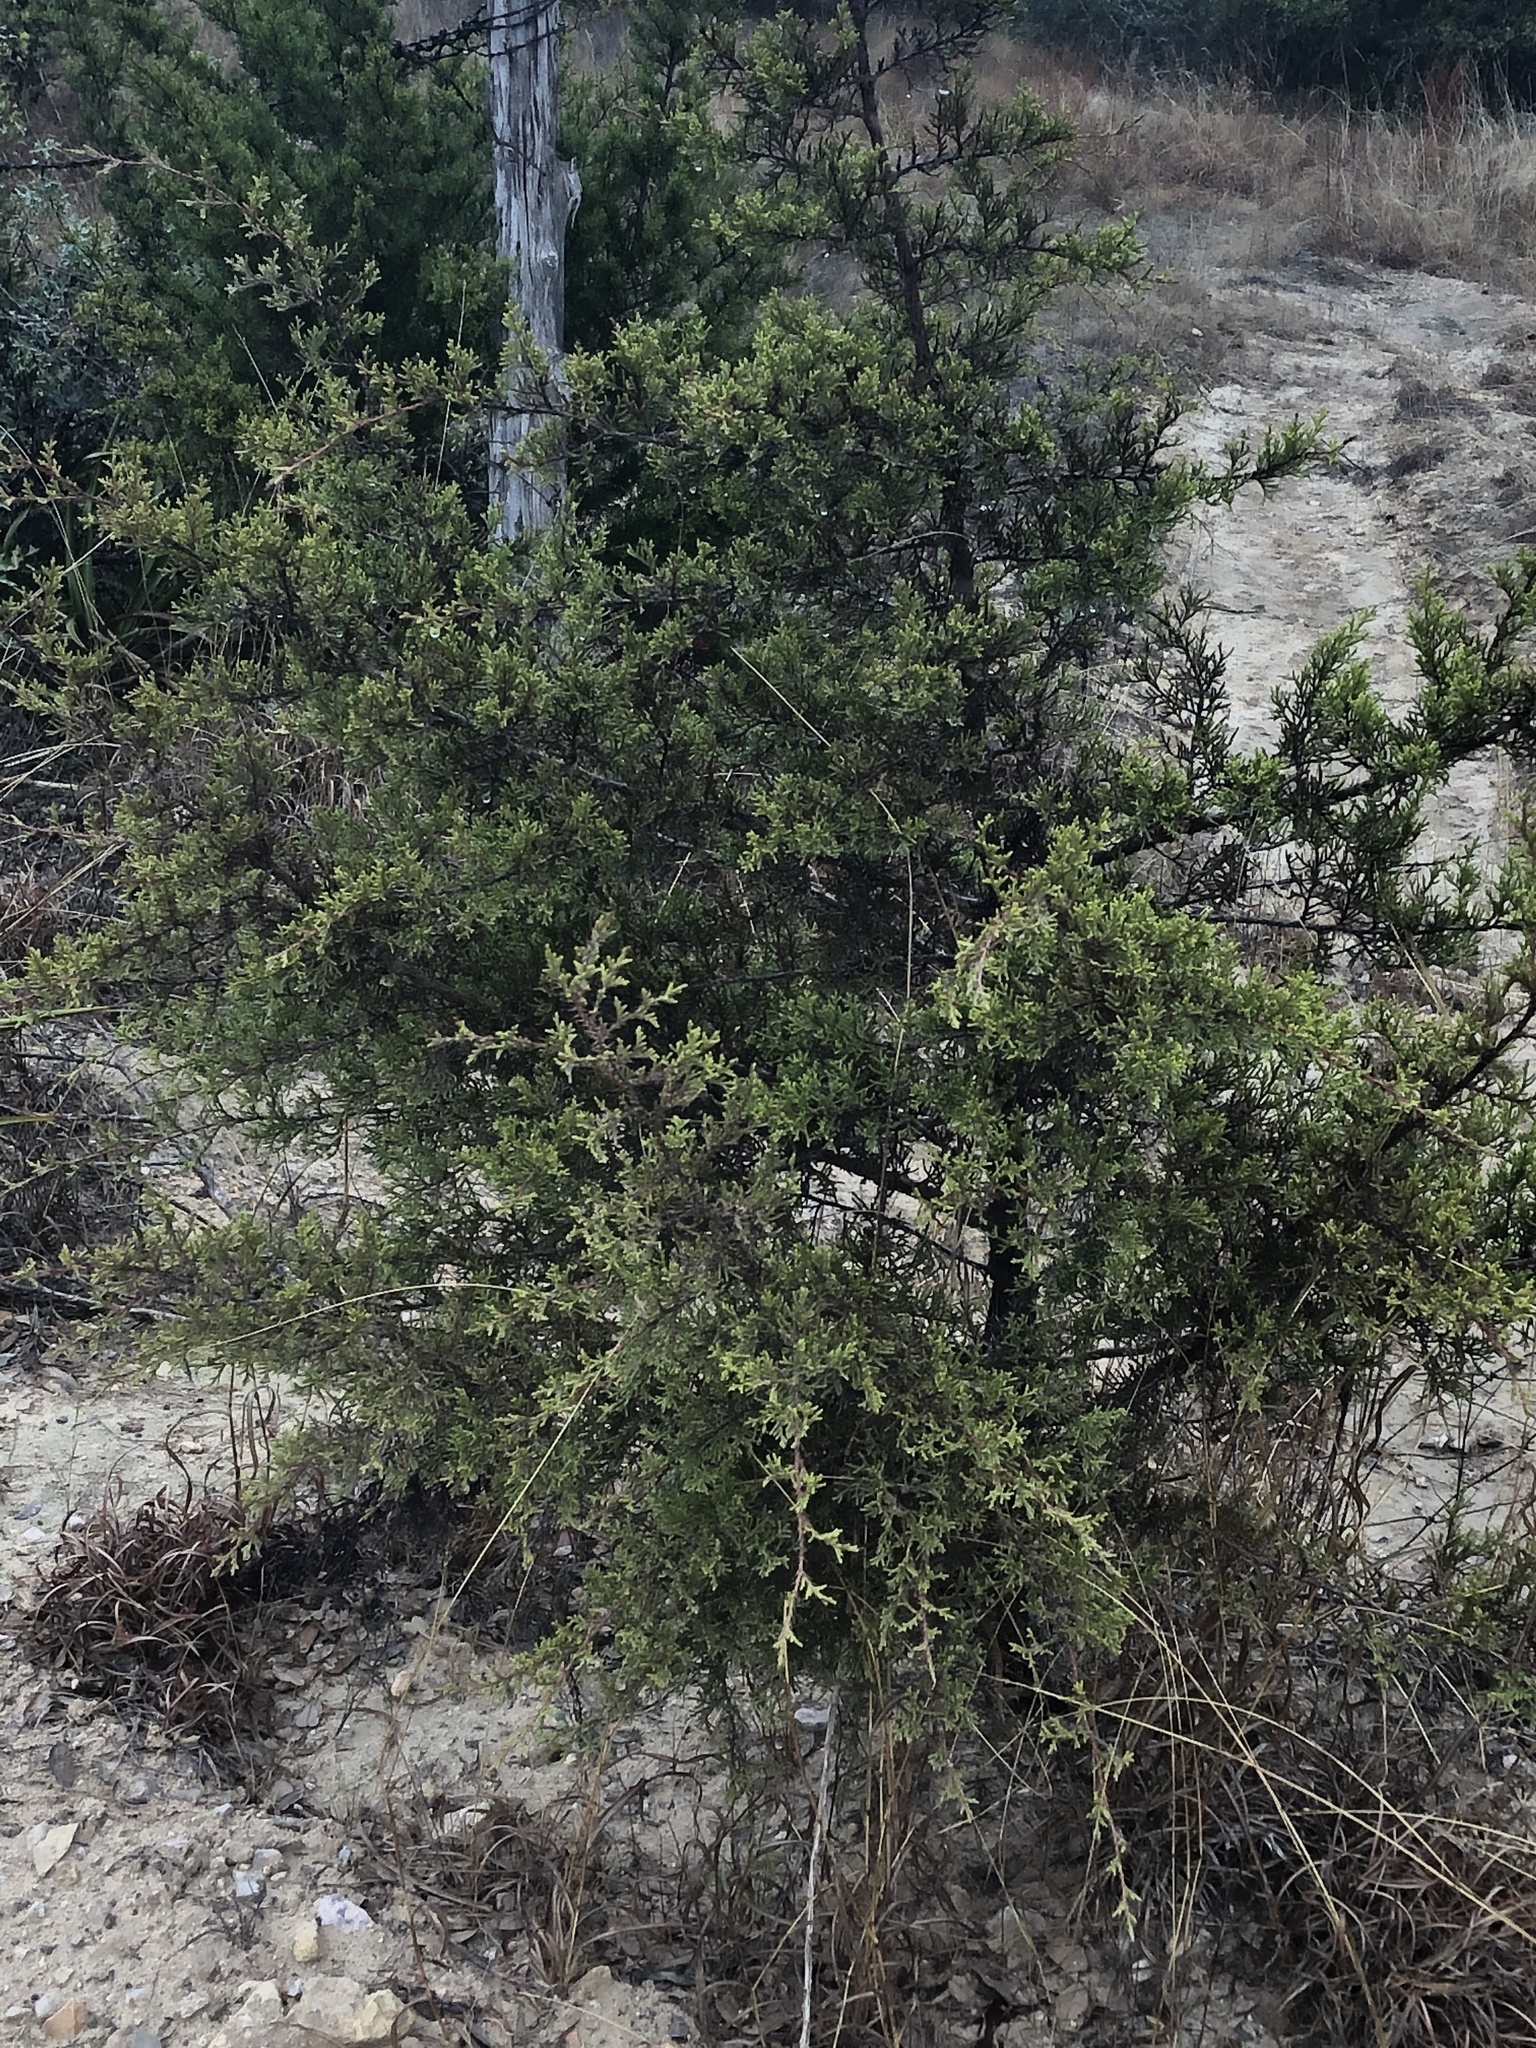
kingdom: Plantae
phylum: Tracheophyta
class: Pinopsida
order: Pinales
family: Cupressaceae
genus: Juniperus
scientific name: Juniperus ashei
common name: Mexican juniper
